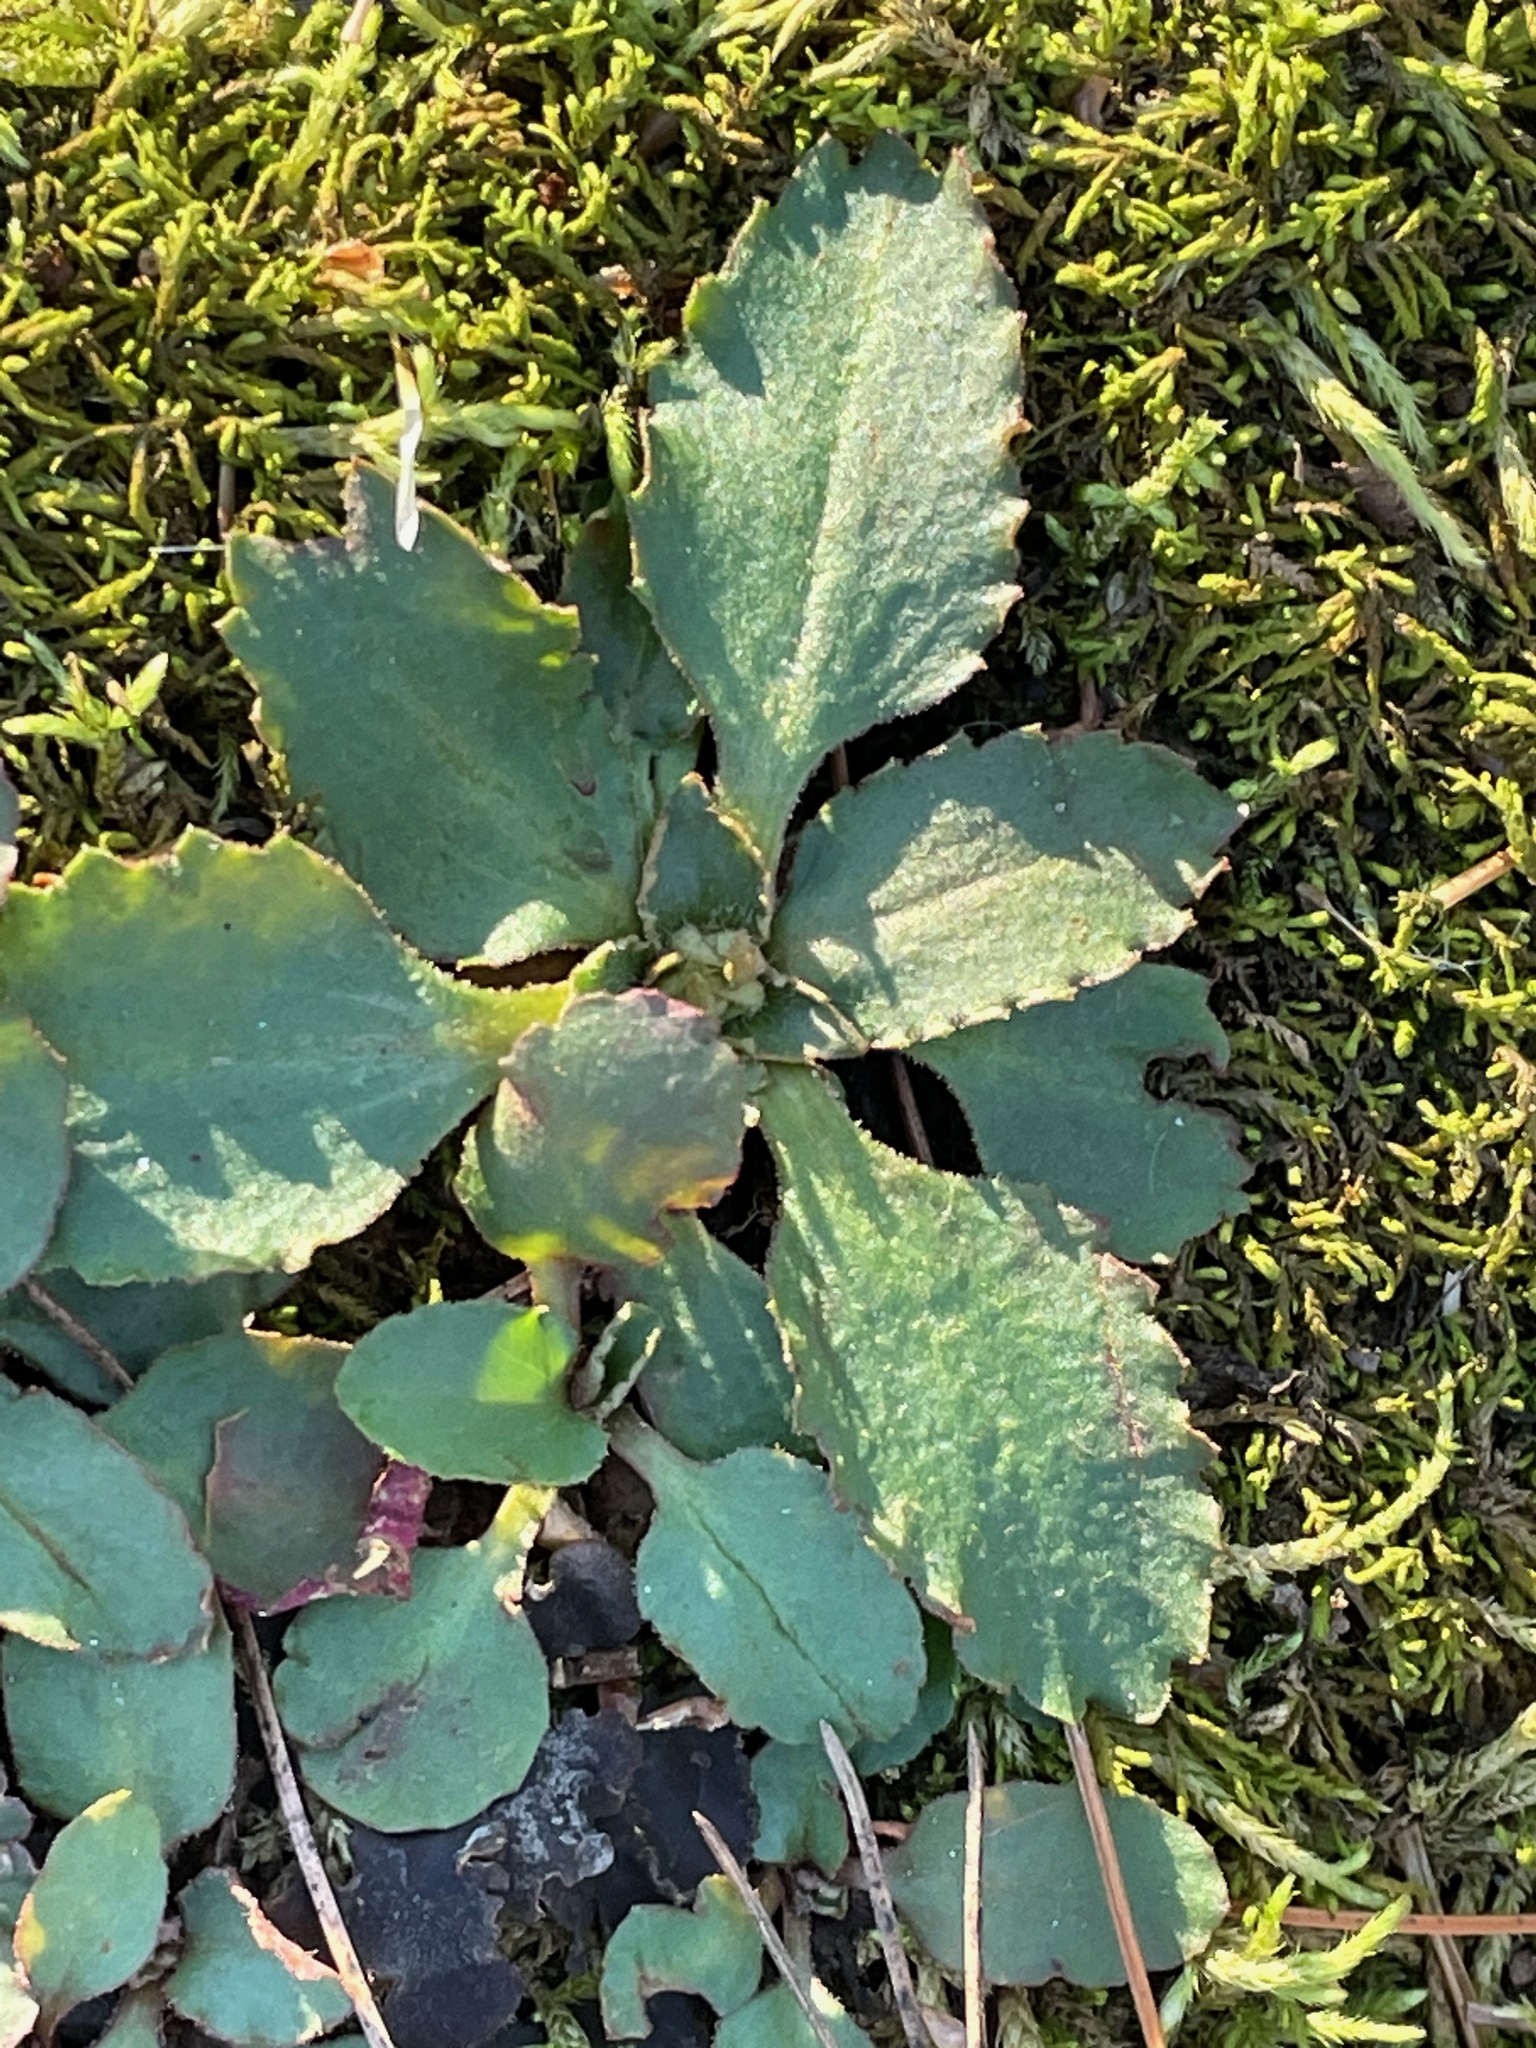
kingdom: Plantae
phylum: Tracheophyta
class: Magnoliopsida
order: Saxifragales
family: Saxifragaceae
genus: Micranthes
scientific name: Micranthes virginiensis
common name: Early saxifrage
